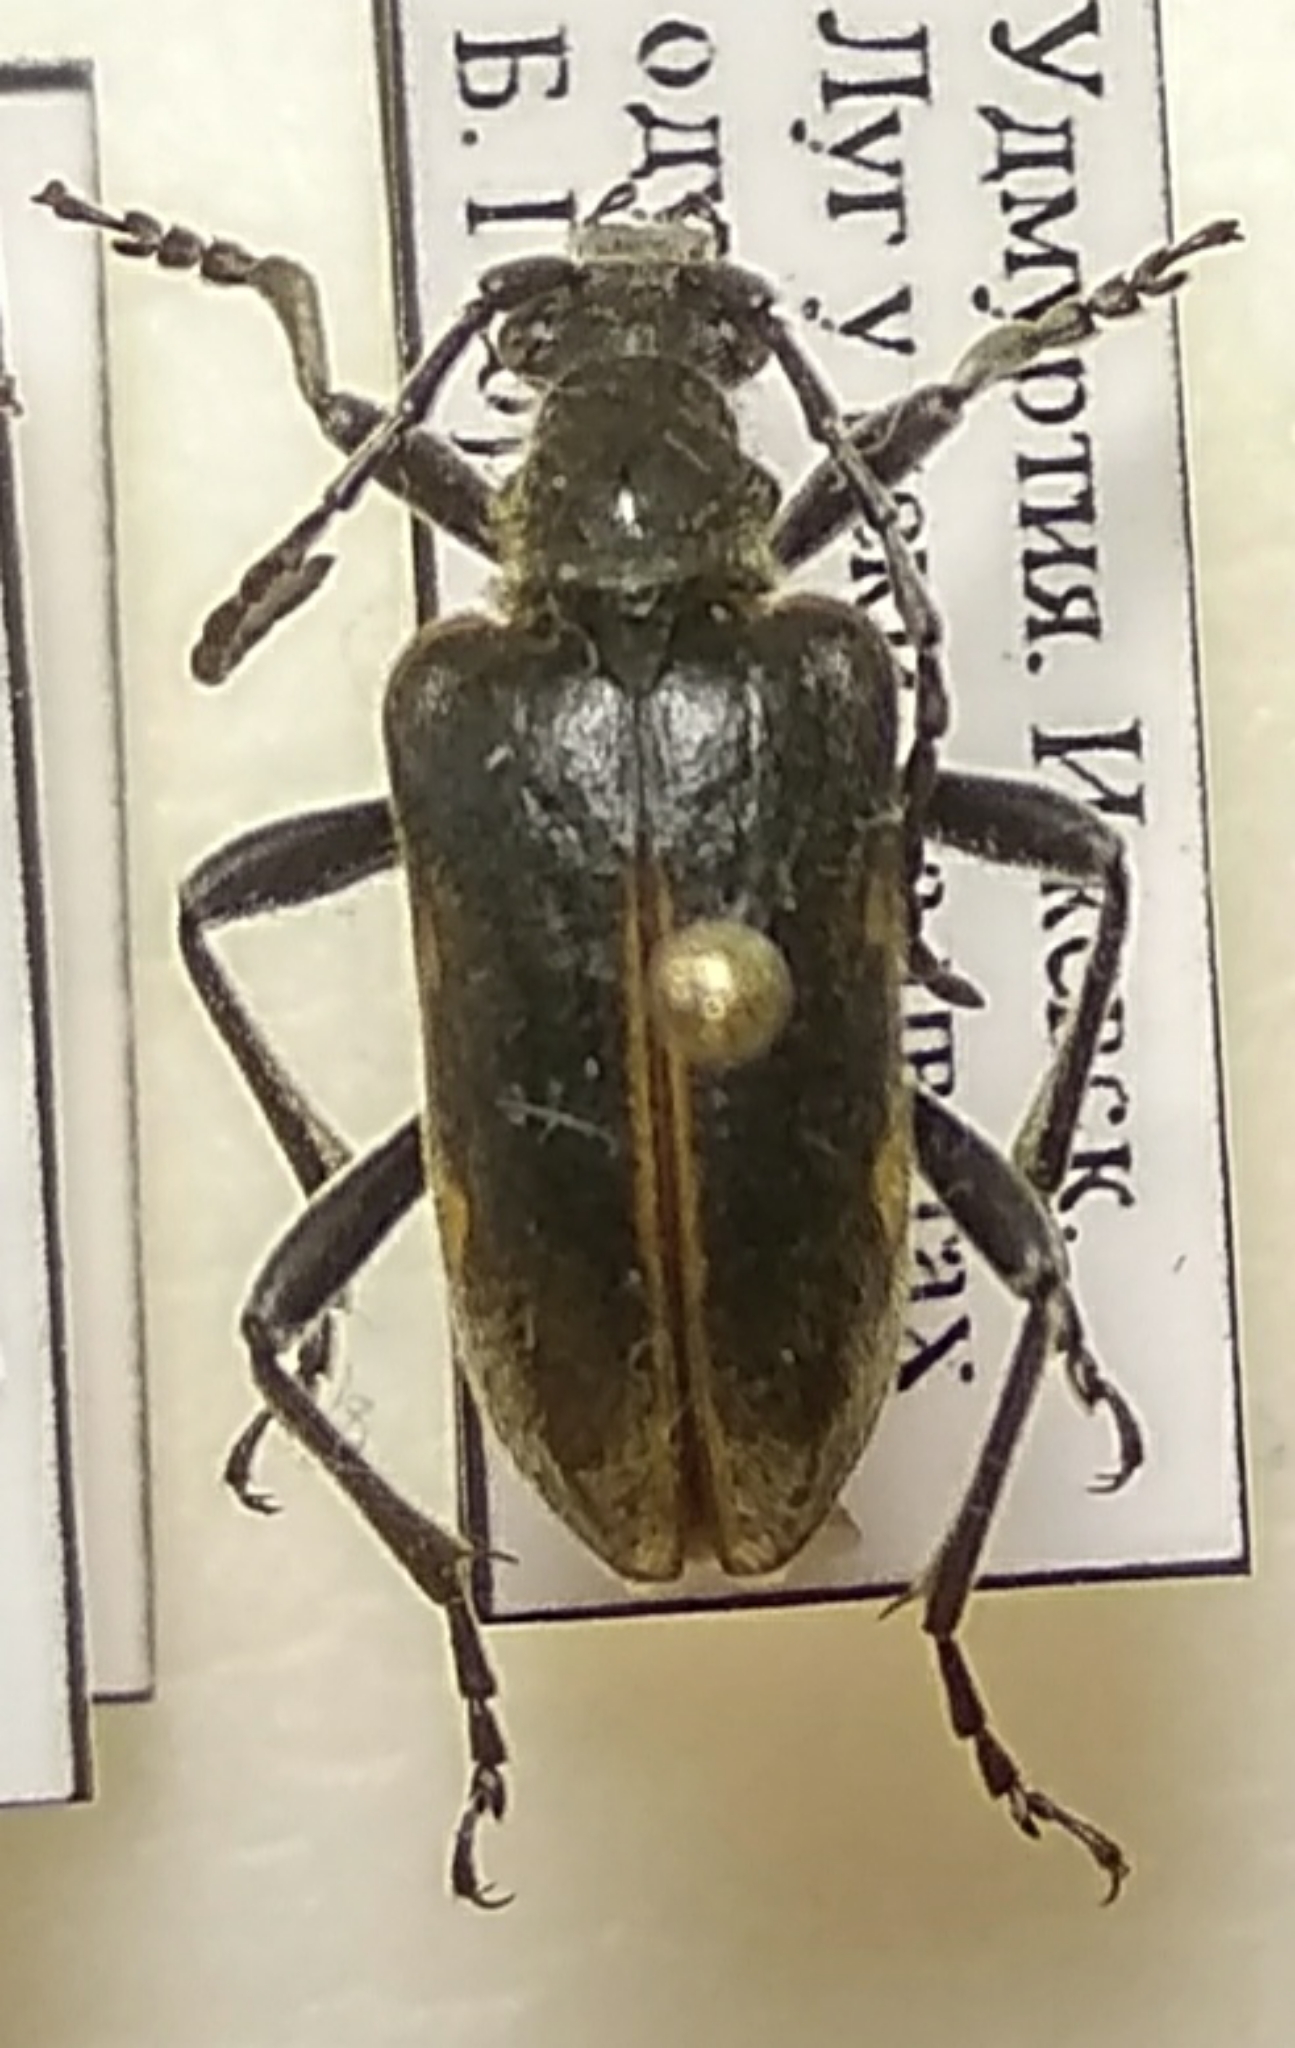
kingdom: Animalia
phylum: Arthropoda
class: Insecta
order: Coleoptera
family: Cerambycidae
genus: Brachyta
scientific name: Brachyta interrogationis
